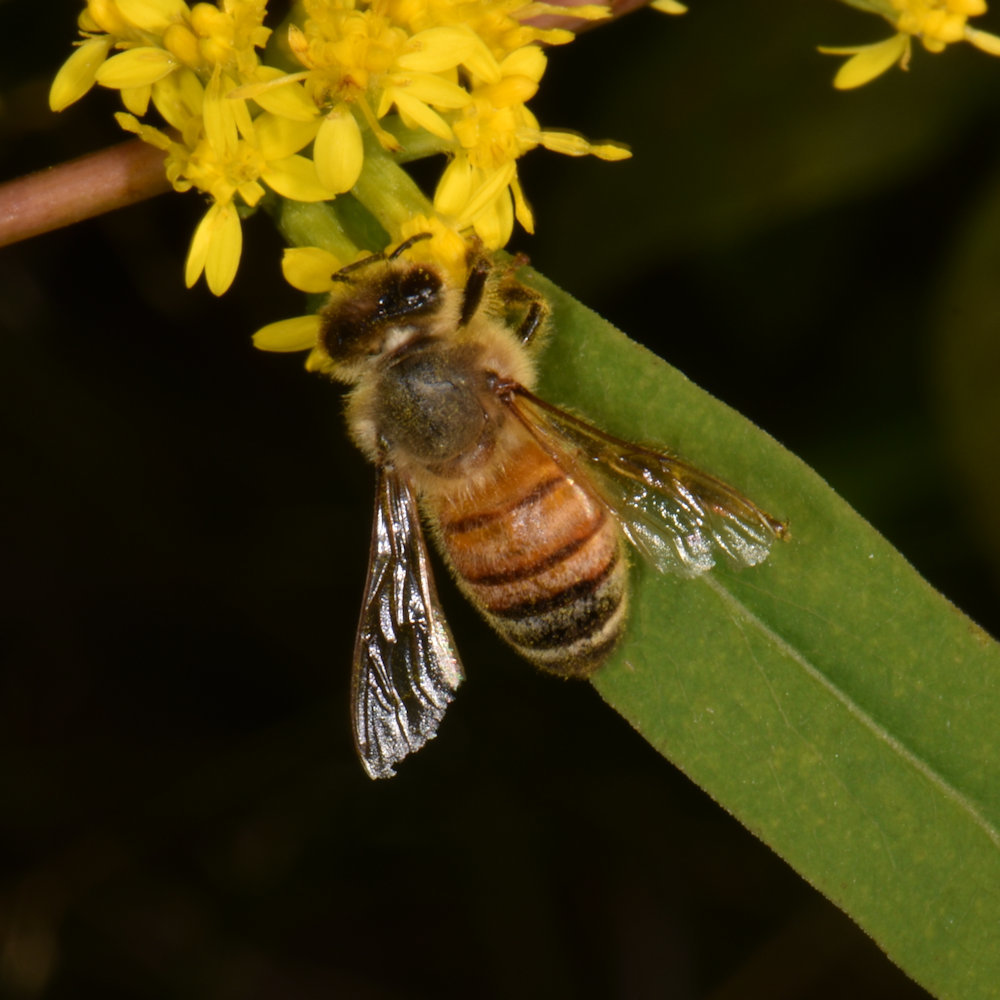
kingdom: Animalia
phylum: Arthropoda
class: Insecta
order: Hymenoptera
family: Apidae
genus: Apis
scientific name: Apis mellifera
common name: Honey bee
